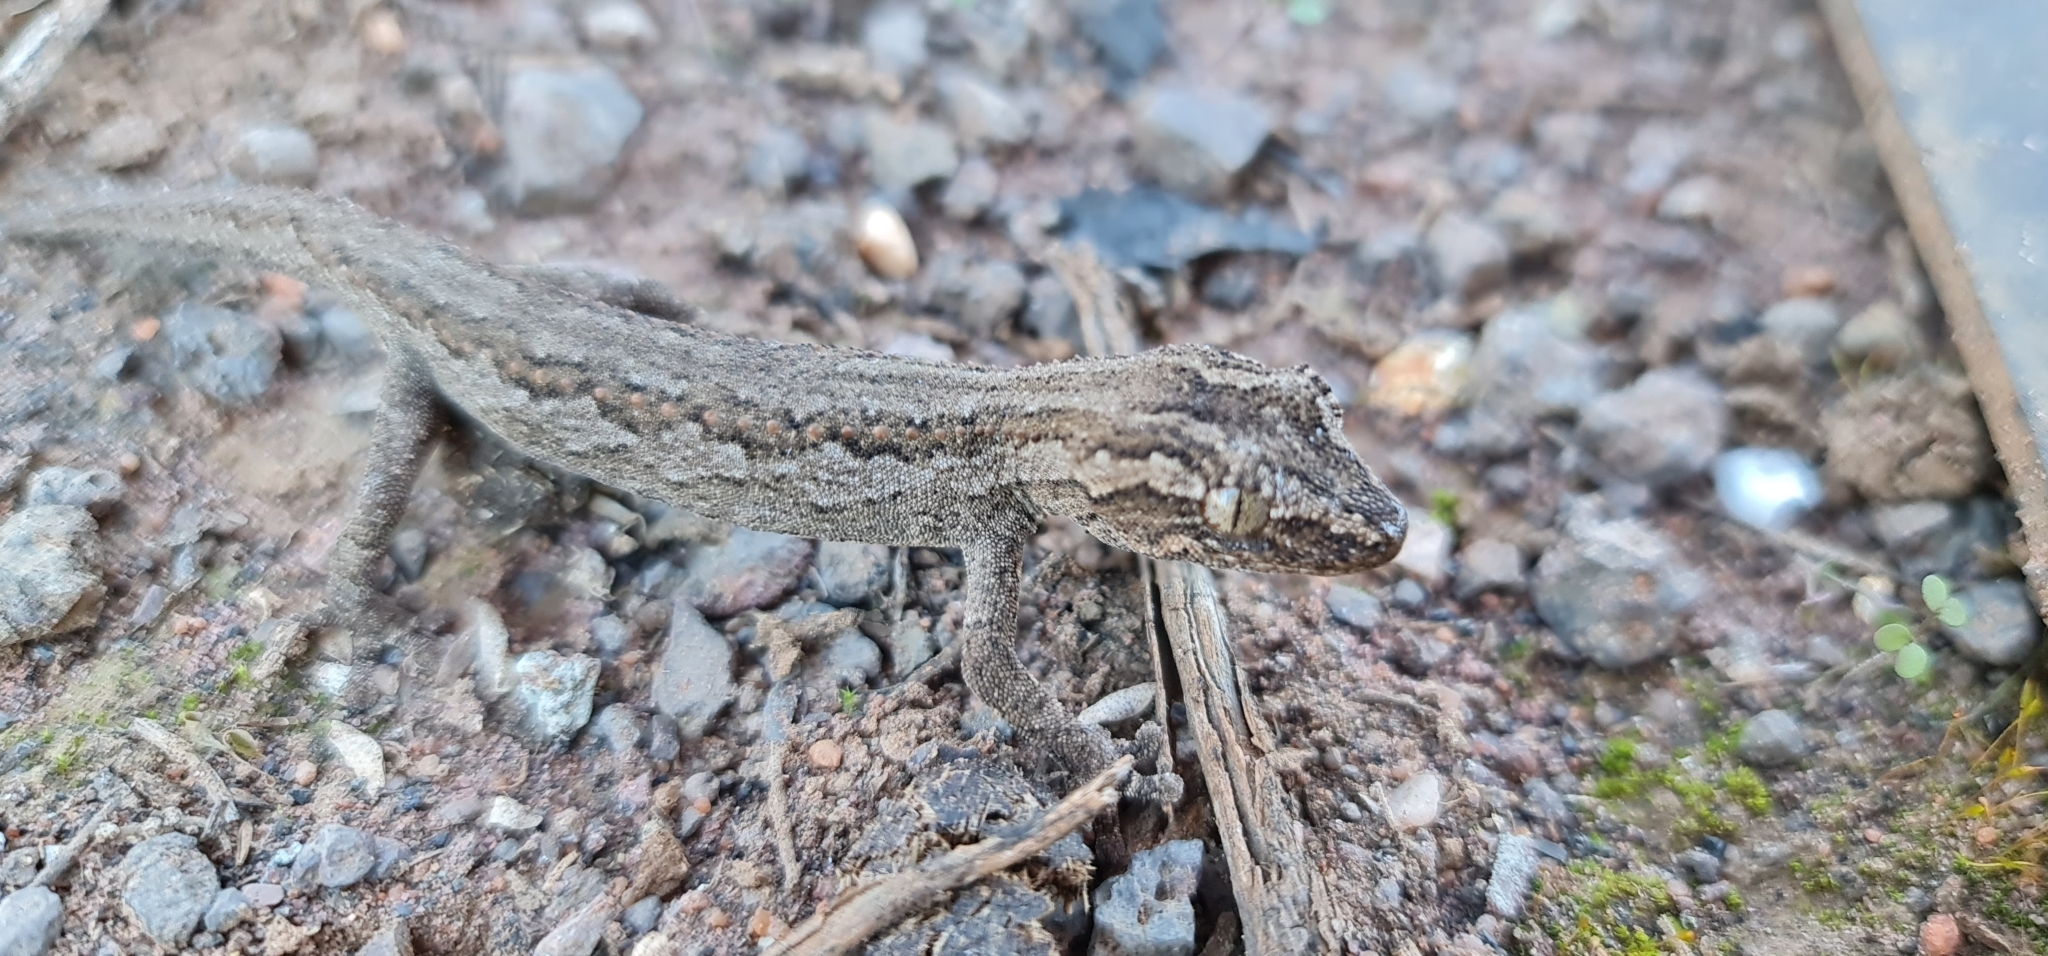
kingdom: Animalia
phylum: Chordata
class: Squamata
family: Diplodactylidae
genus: Strophurus
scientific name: Strophurus intermedius
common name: Eastern spiny-tailed gecko
